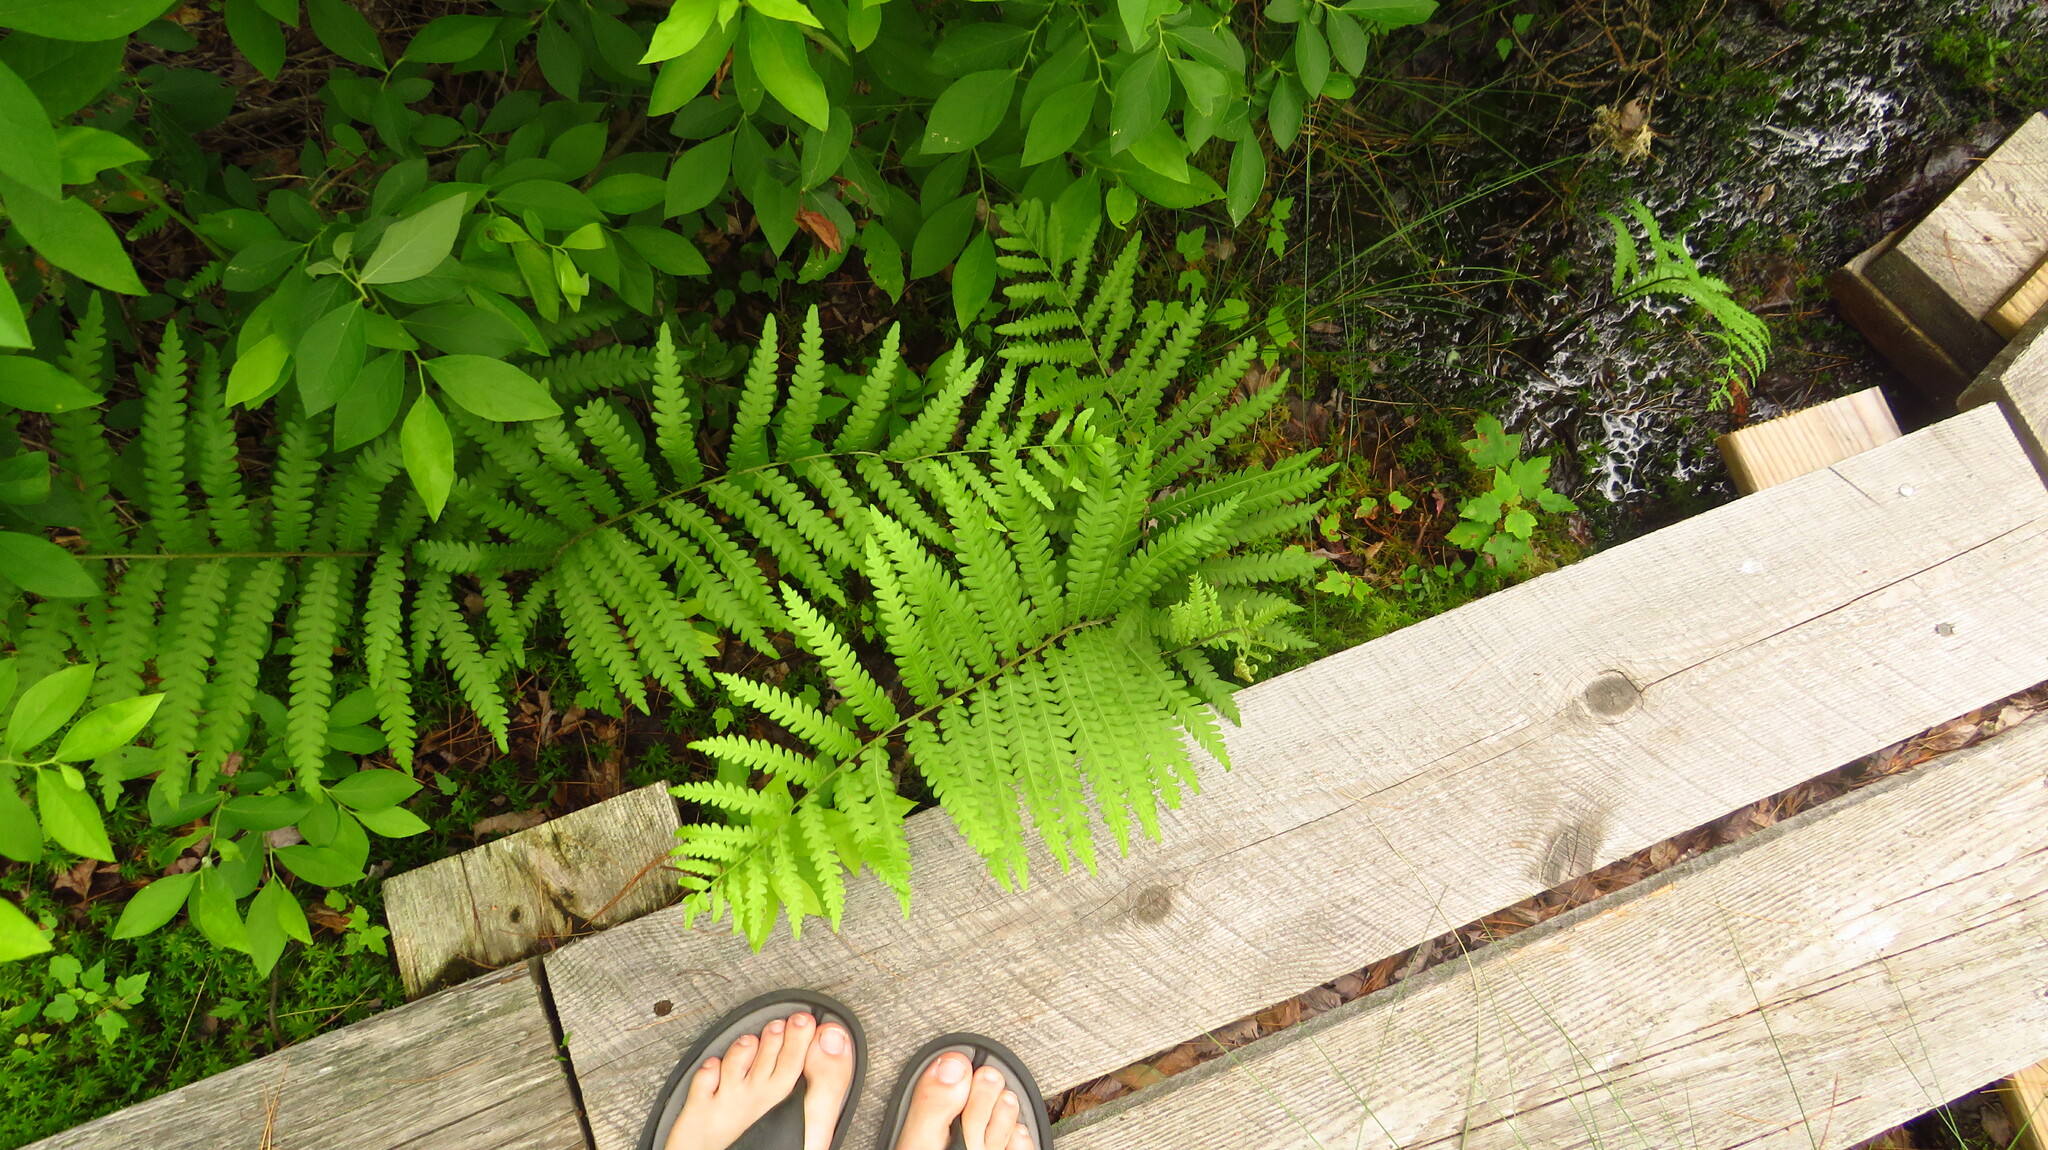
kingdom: Plantae
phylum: Tracheophyta
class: Polypodiopsida
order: Polypodiales
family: Blechnaceae
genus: Anchistea
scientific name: Anchistea virginica
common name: Virginia chain fern
